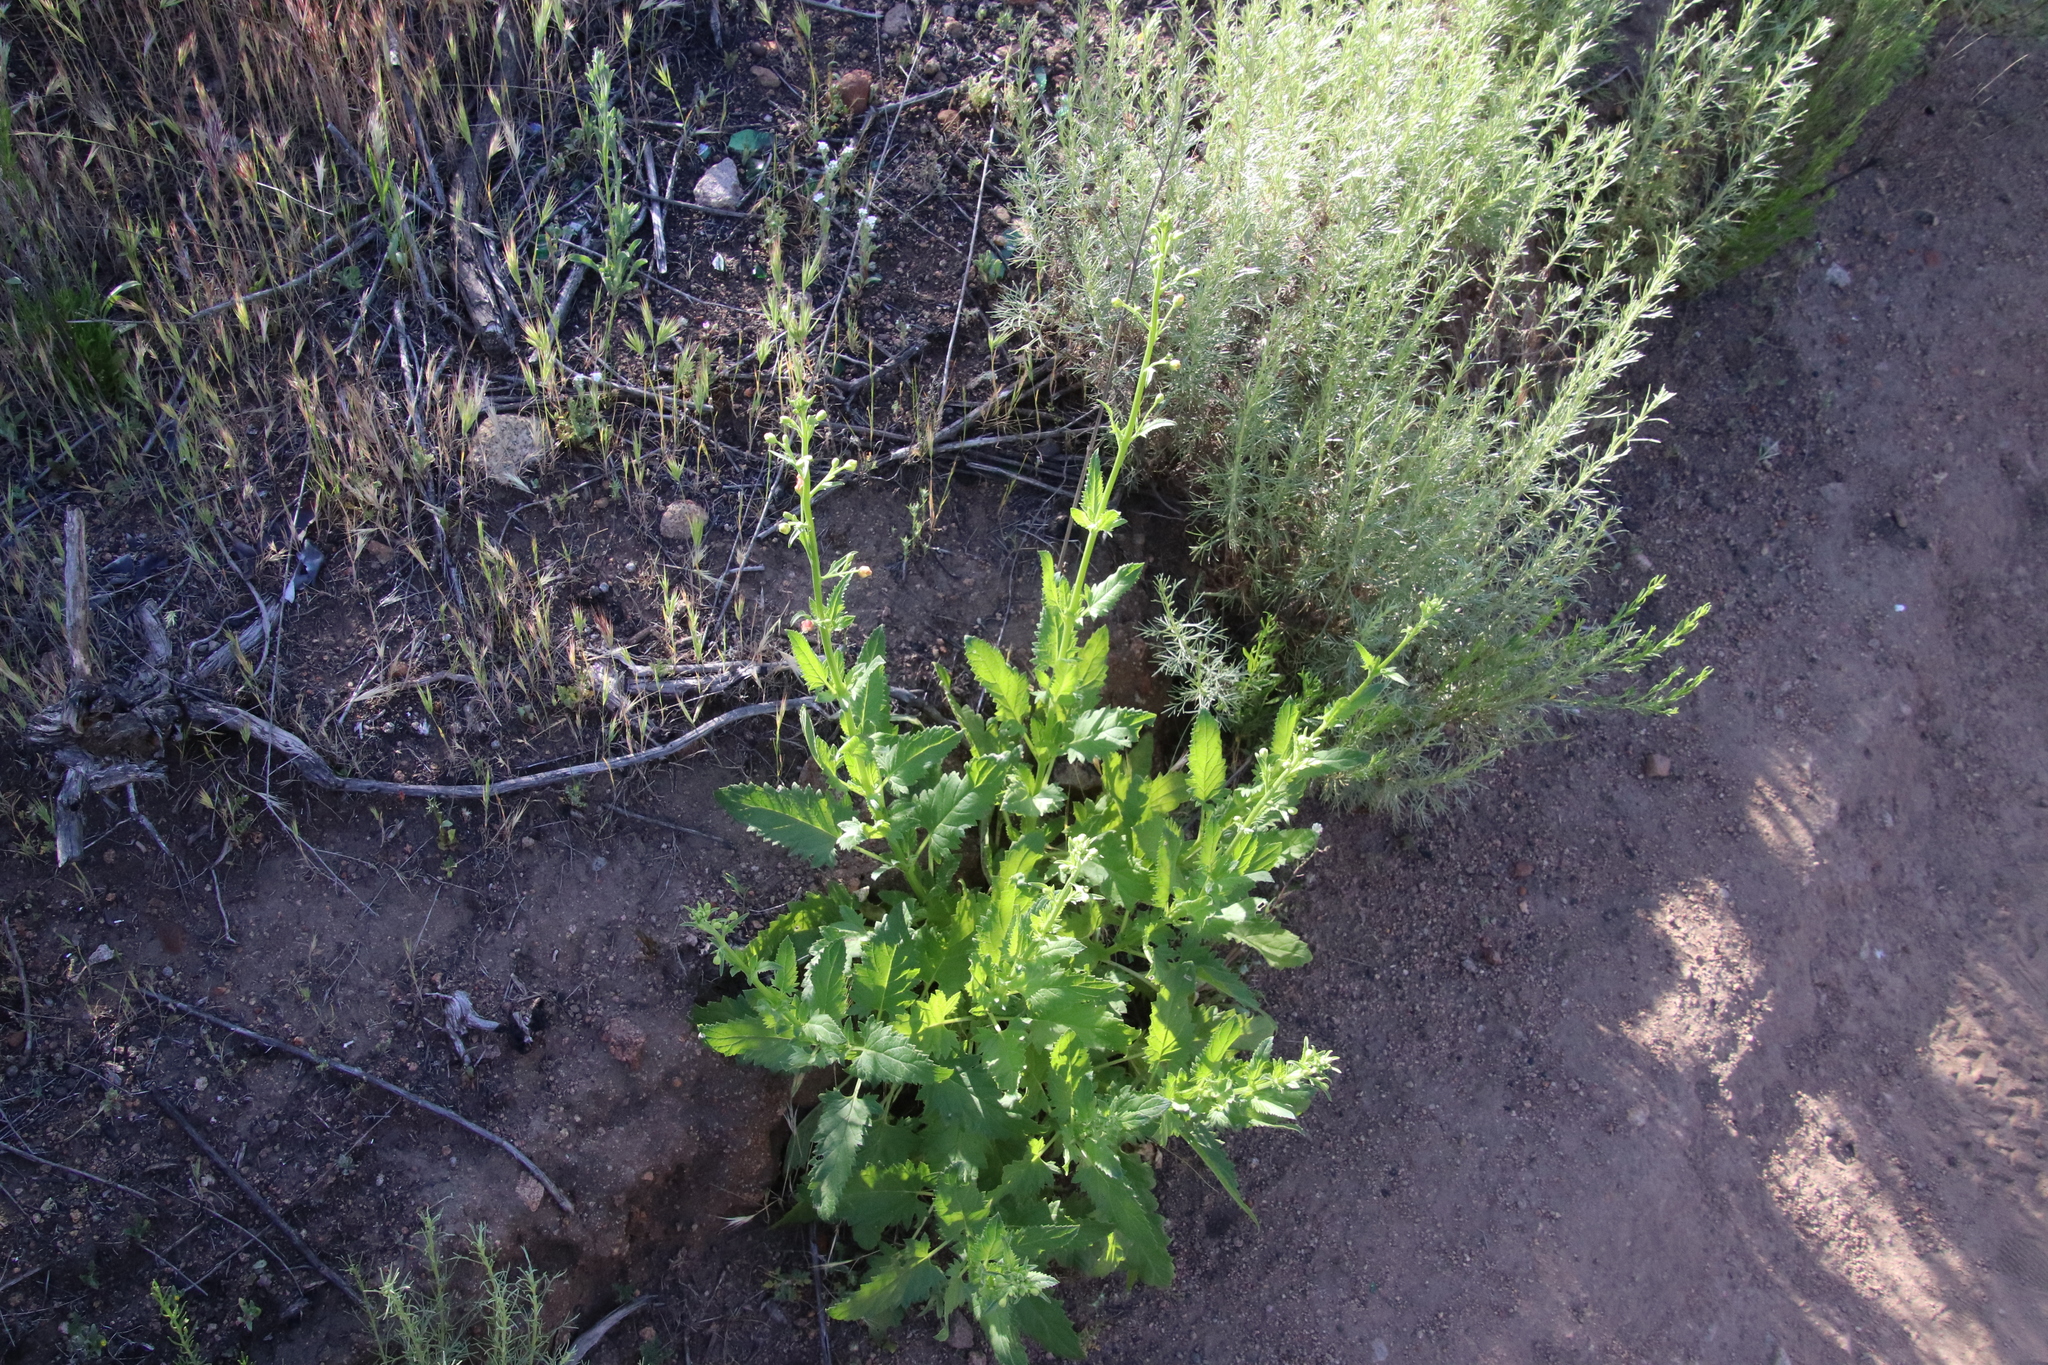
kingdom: Plantae
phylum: Tracheophyta
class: Magnoliopsida
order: Lamiales
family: Scrophulariaceae
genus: Scrophularia
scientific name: Scrophularia californica
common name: California figwort
